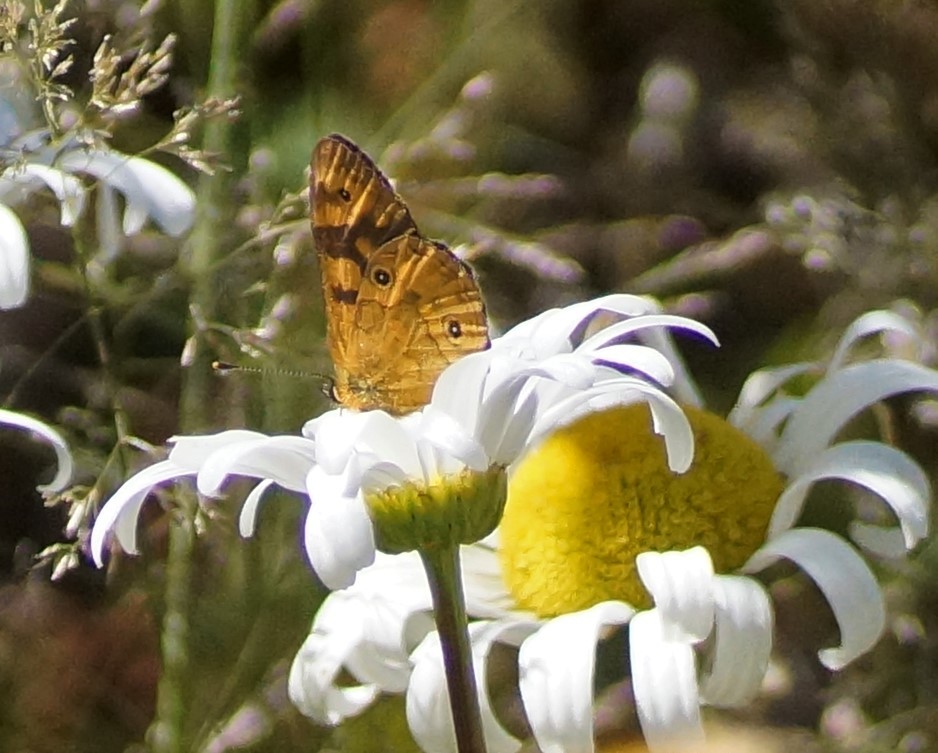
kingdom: Animalia
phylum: Arthropoda
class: Insecta
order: Lepidoptera
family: Nymphalidae
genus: Oreixenica
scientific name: Oreixenica correae
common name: Correa brown
